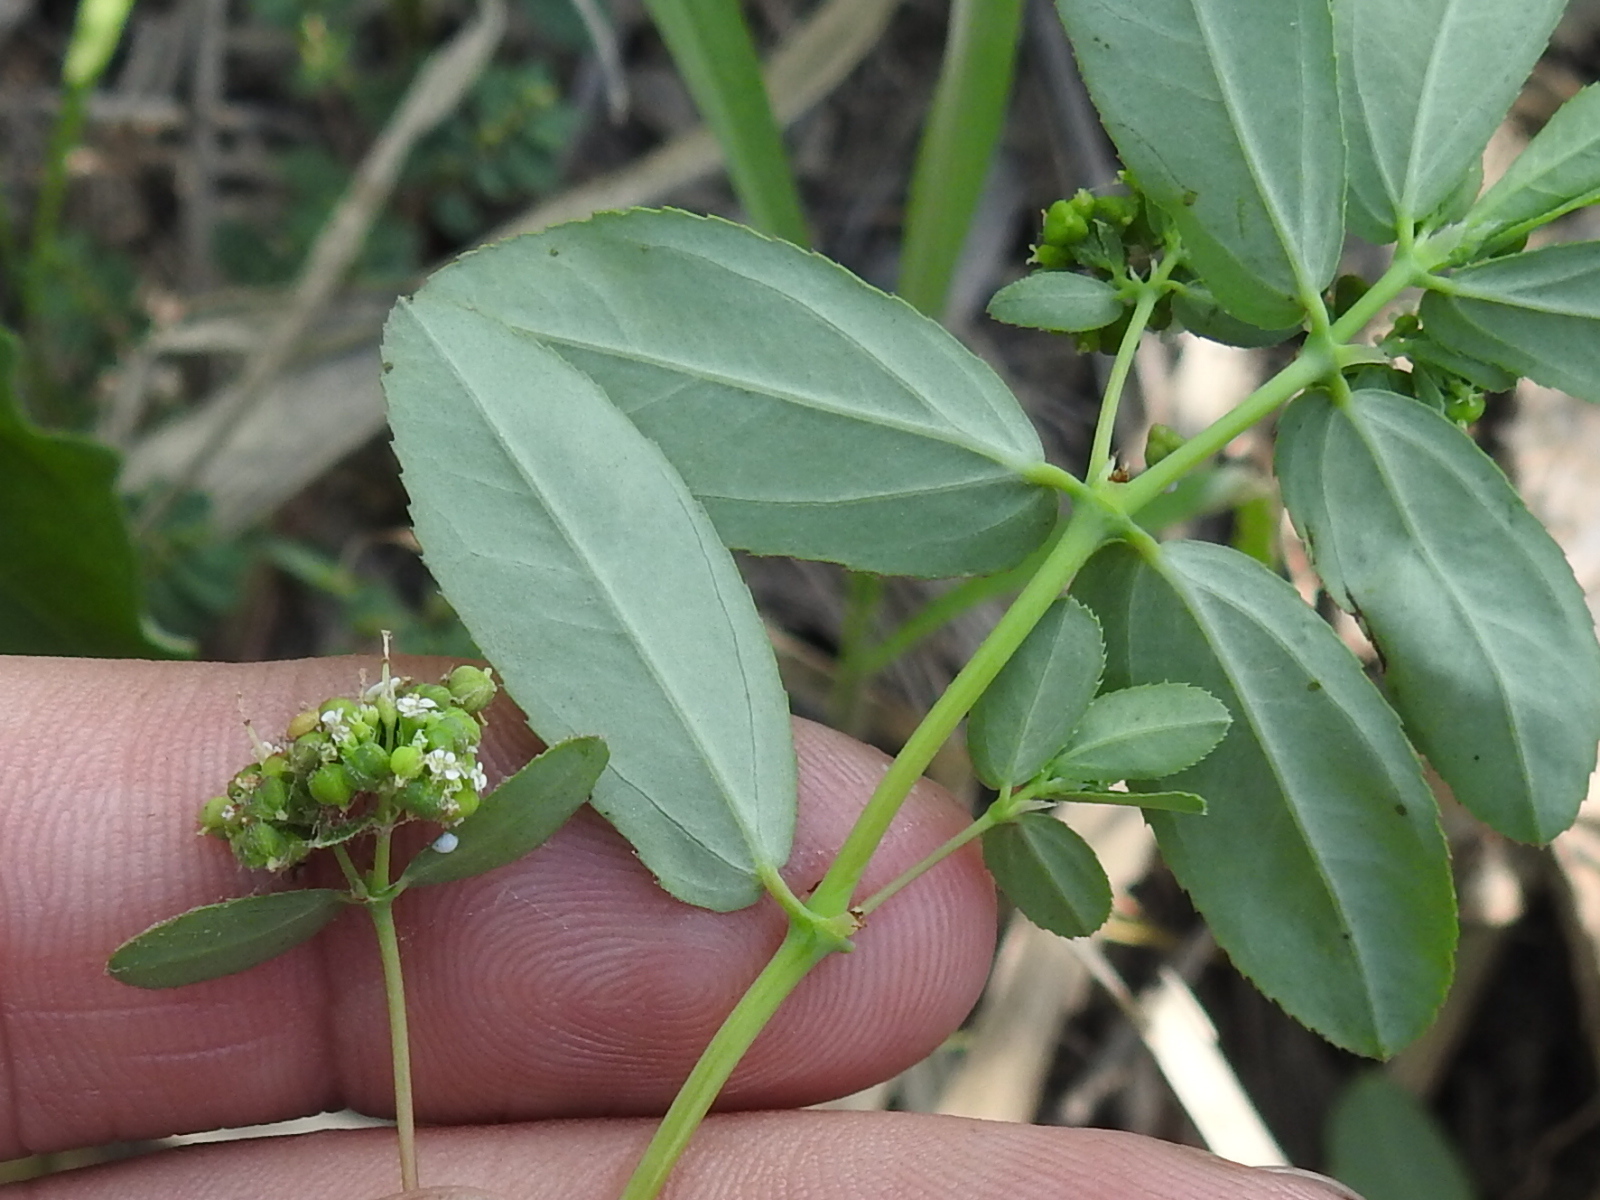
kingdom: Plantae
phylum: Tracheophyta
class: Magnoliopsida
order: Malpighiales
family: Euphorbiaceae
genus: Euphorbia
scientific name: Euphorbia hypericifolia
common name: Graceful sandmat
